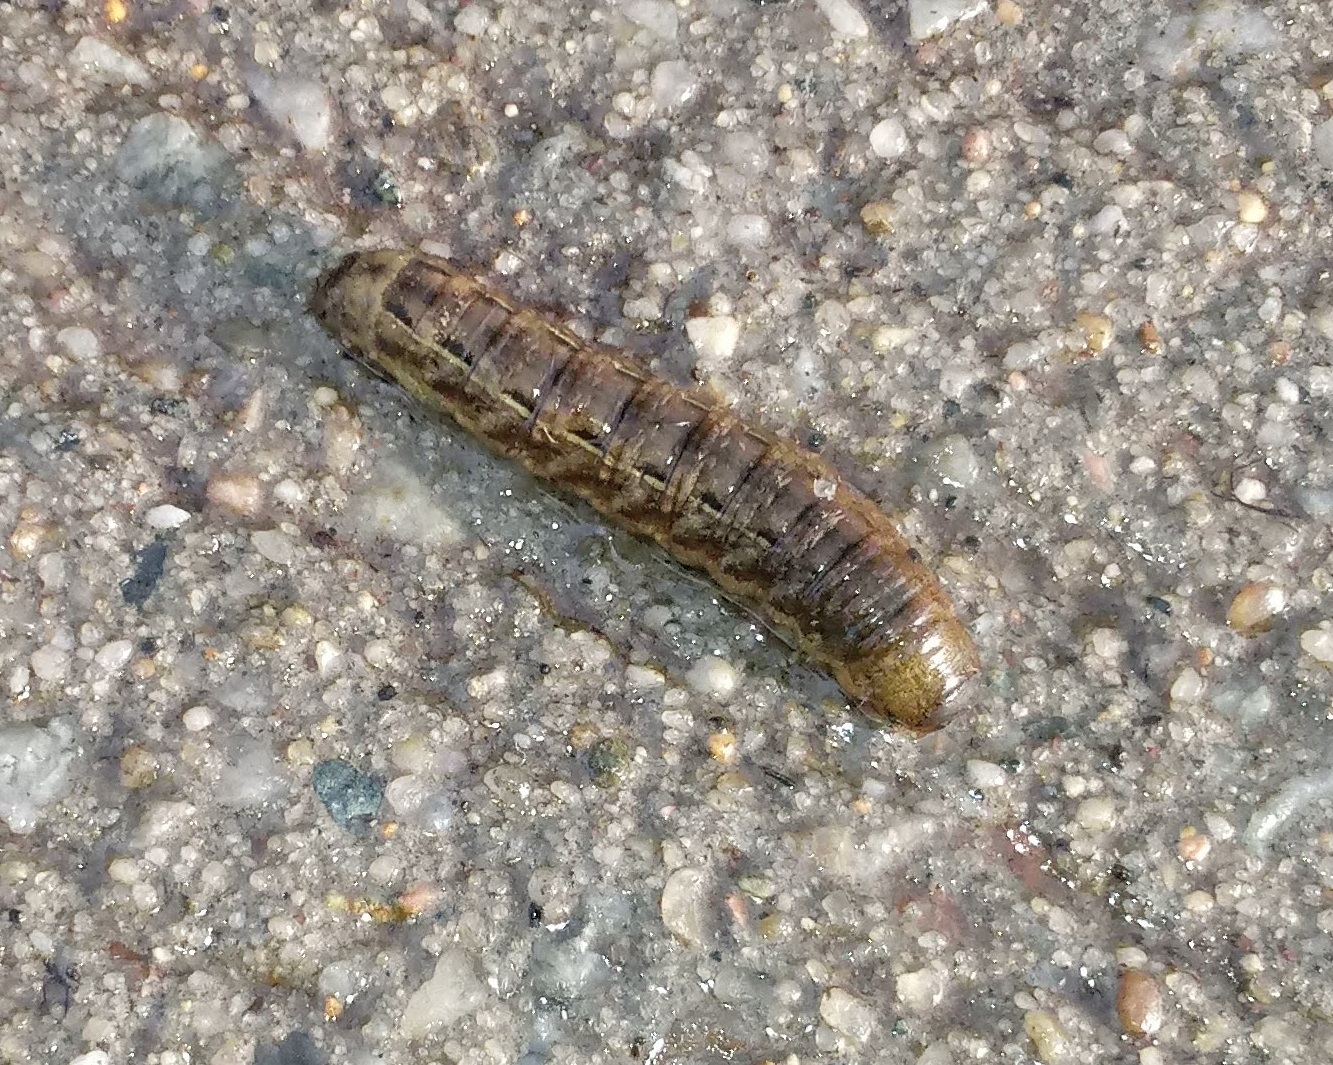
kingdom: Animalia
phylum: Arthropoda
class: Insecta
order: Lepidoptera
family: Noctuidae
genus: Noctua
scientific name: Noctua pronuba
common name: Large yellow underwing
